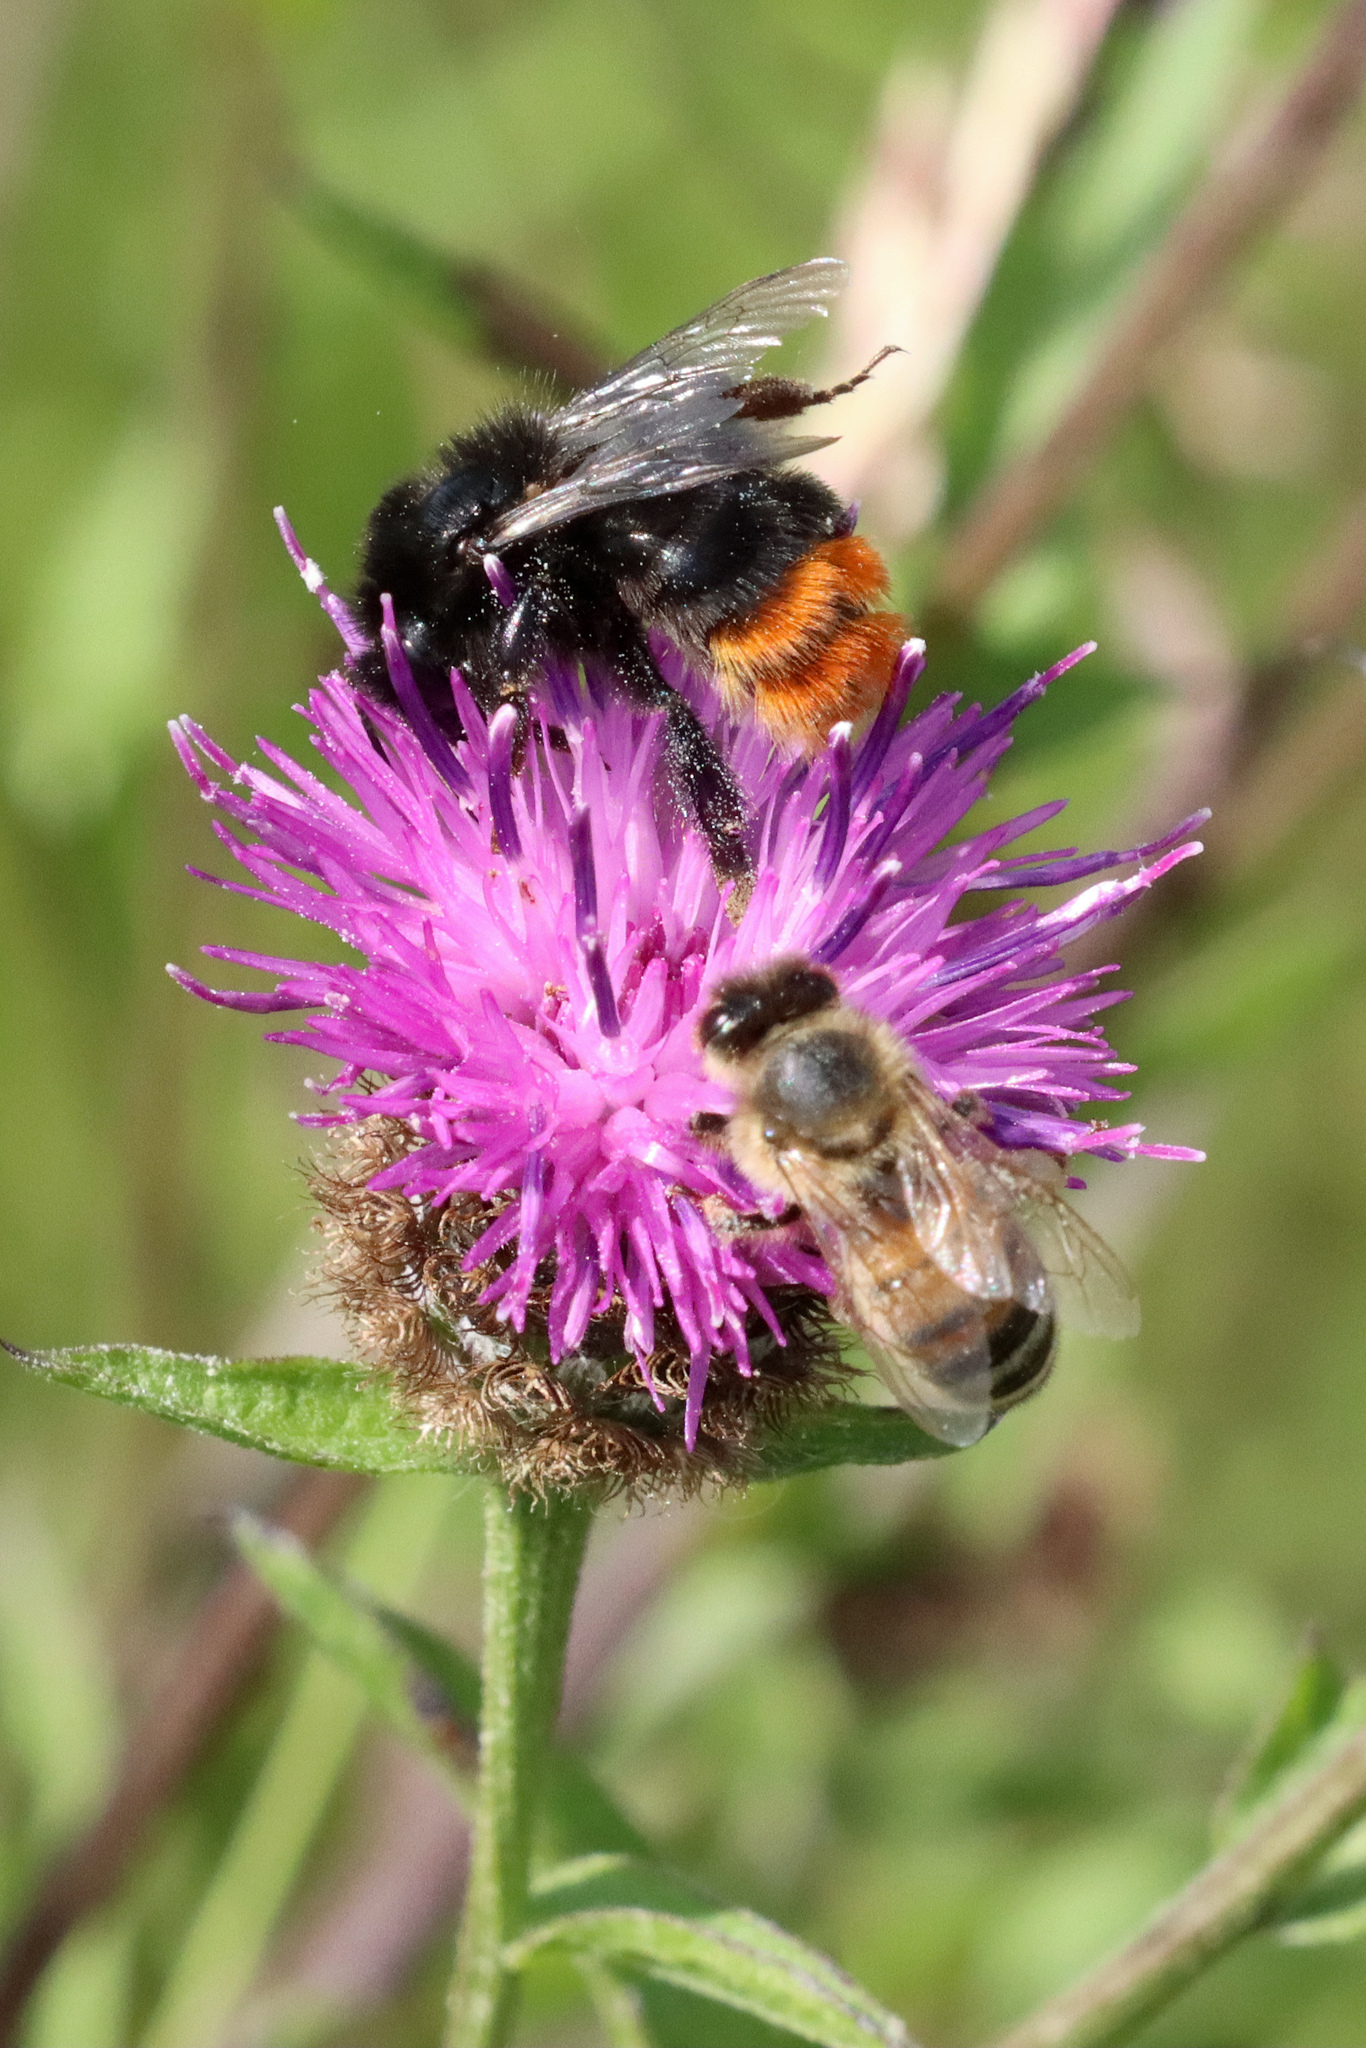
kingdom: Animalia
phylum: Arthropoda
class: Insecta
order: Hymenoptera
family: Apidae
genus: Bombus
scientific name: Bombus lapidarius
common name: Large red-tailed humble-bee
